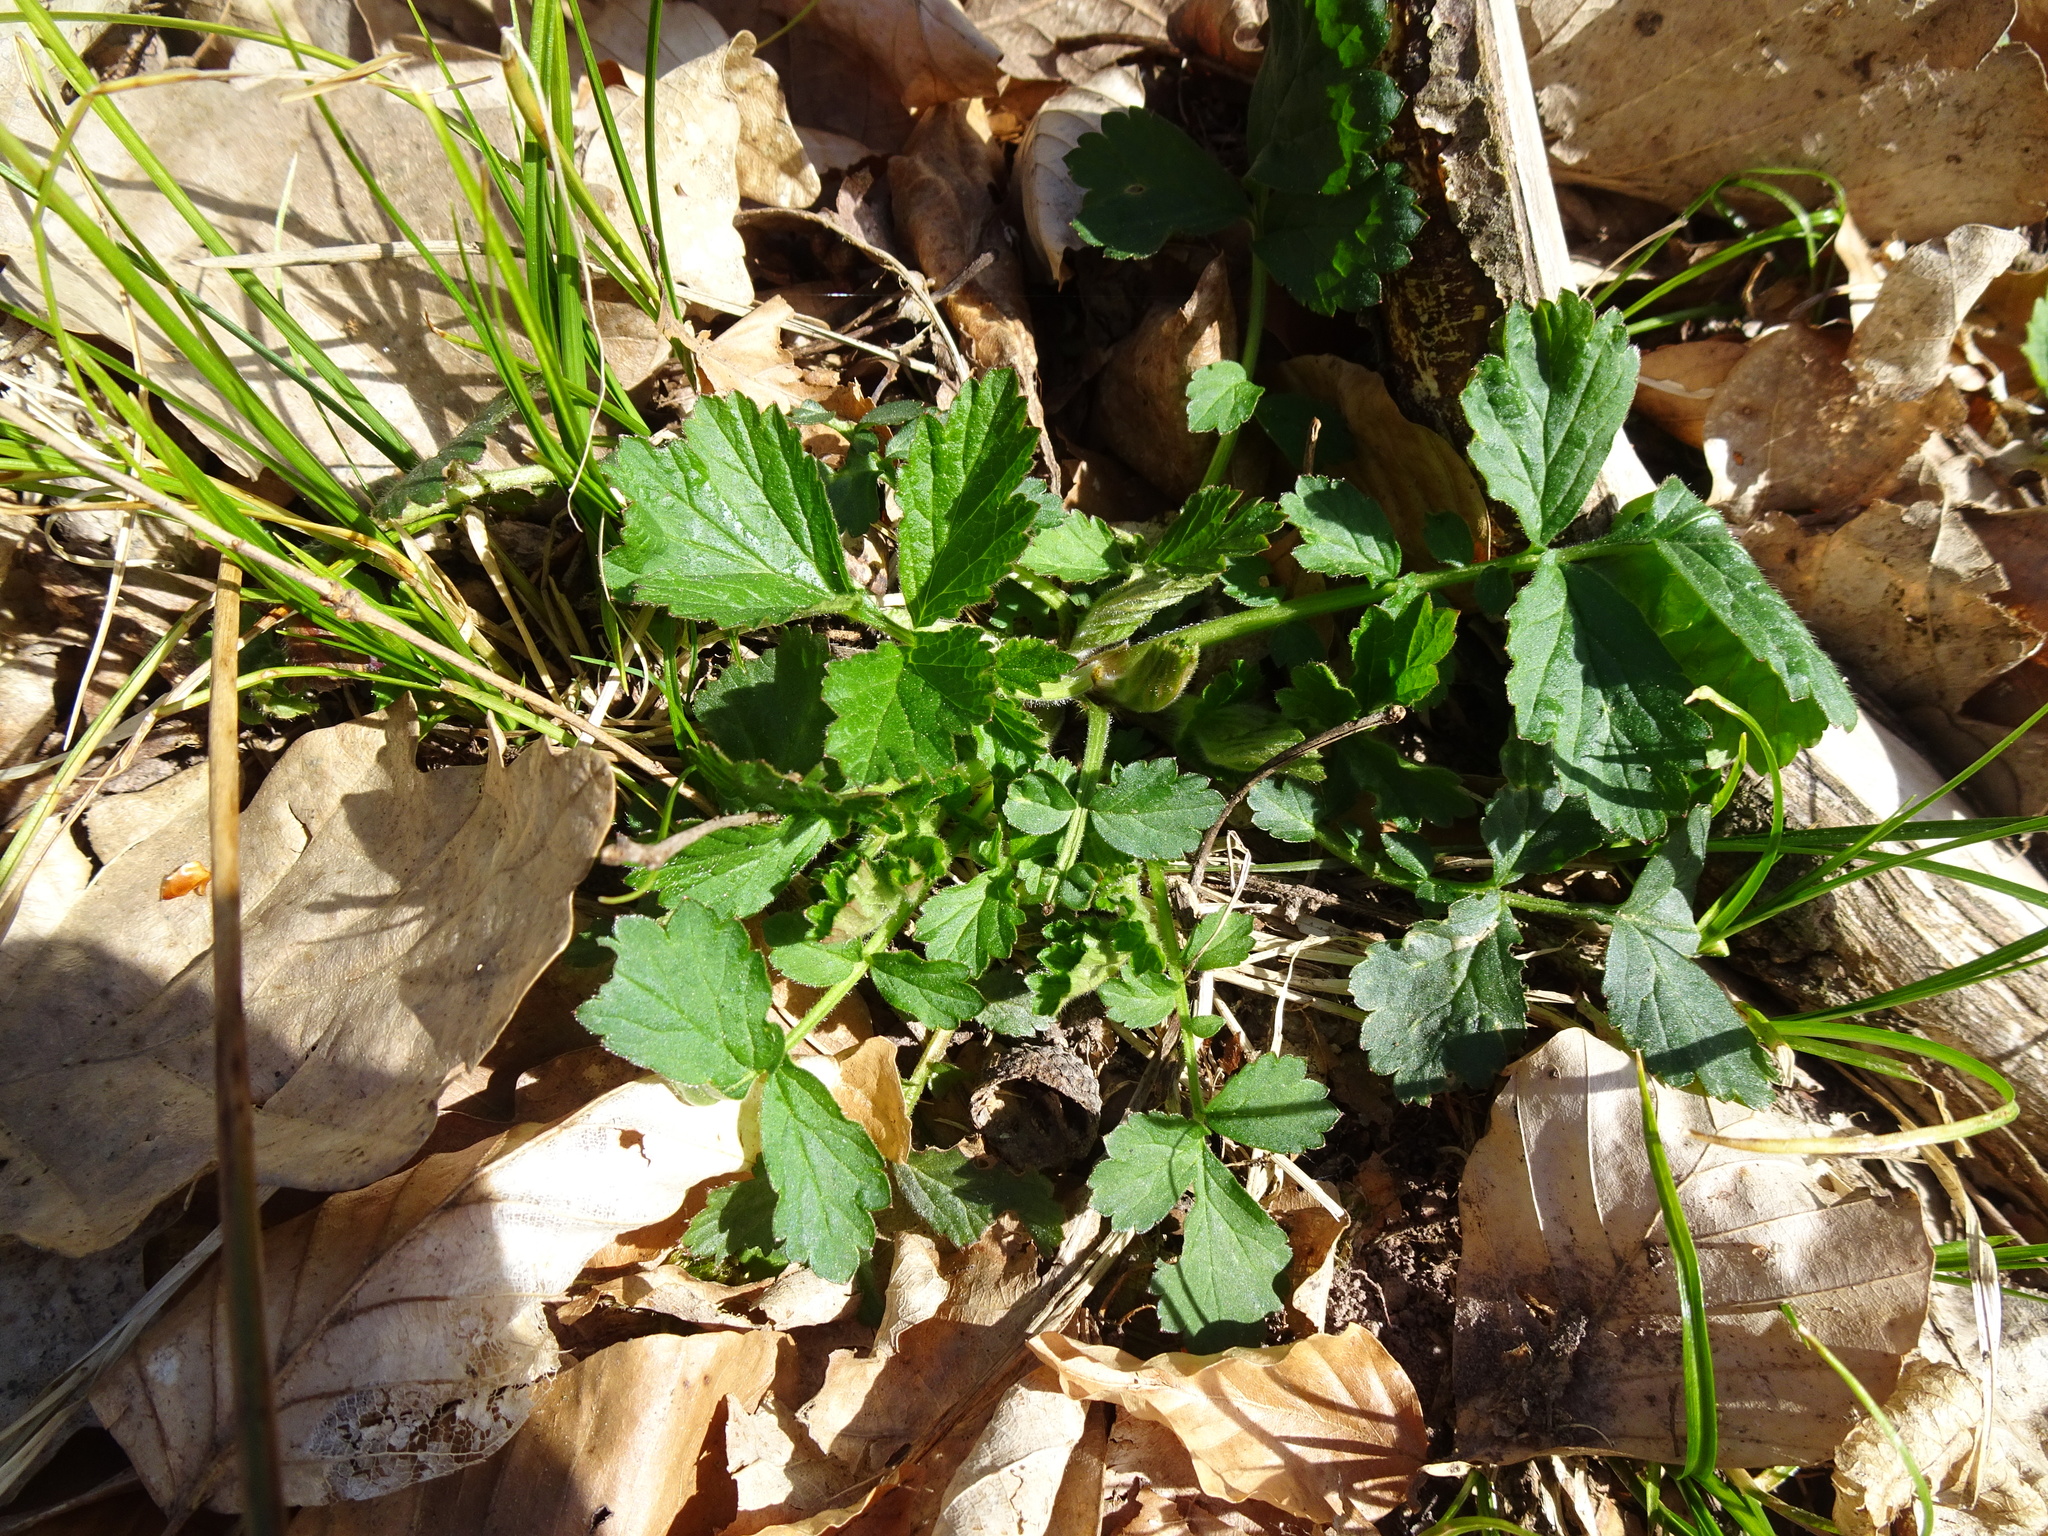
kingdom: Plantae
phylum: Tracheophyta
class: Magnoliopsida
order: Rosales
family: Rosaceae
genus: Geum
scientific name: Geum urbanum
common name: Wood avens
